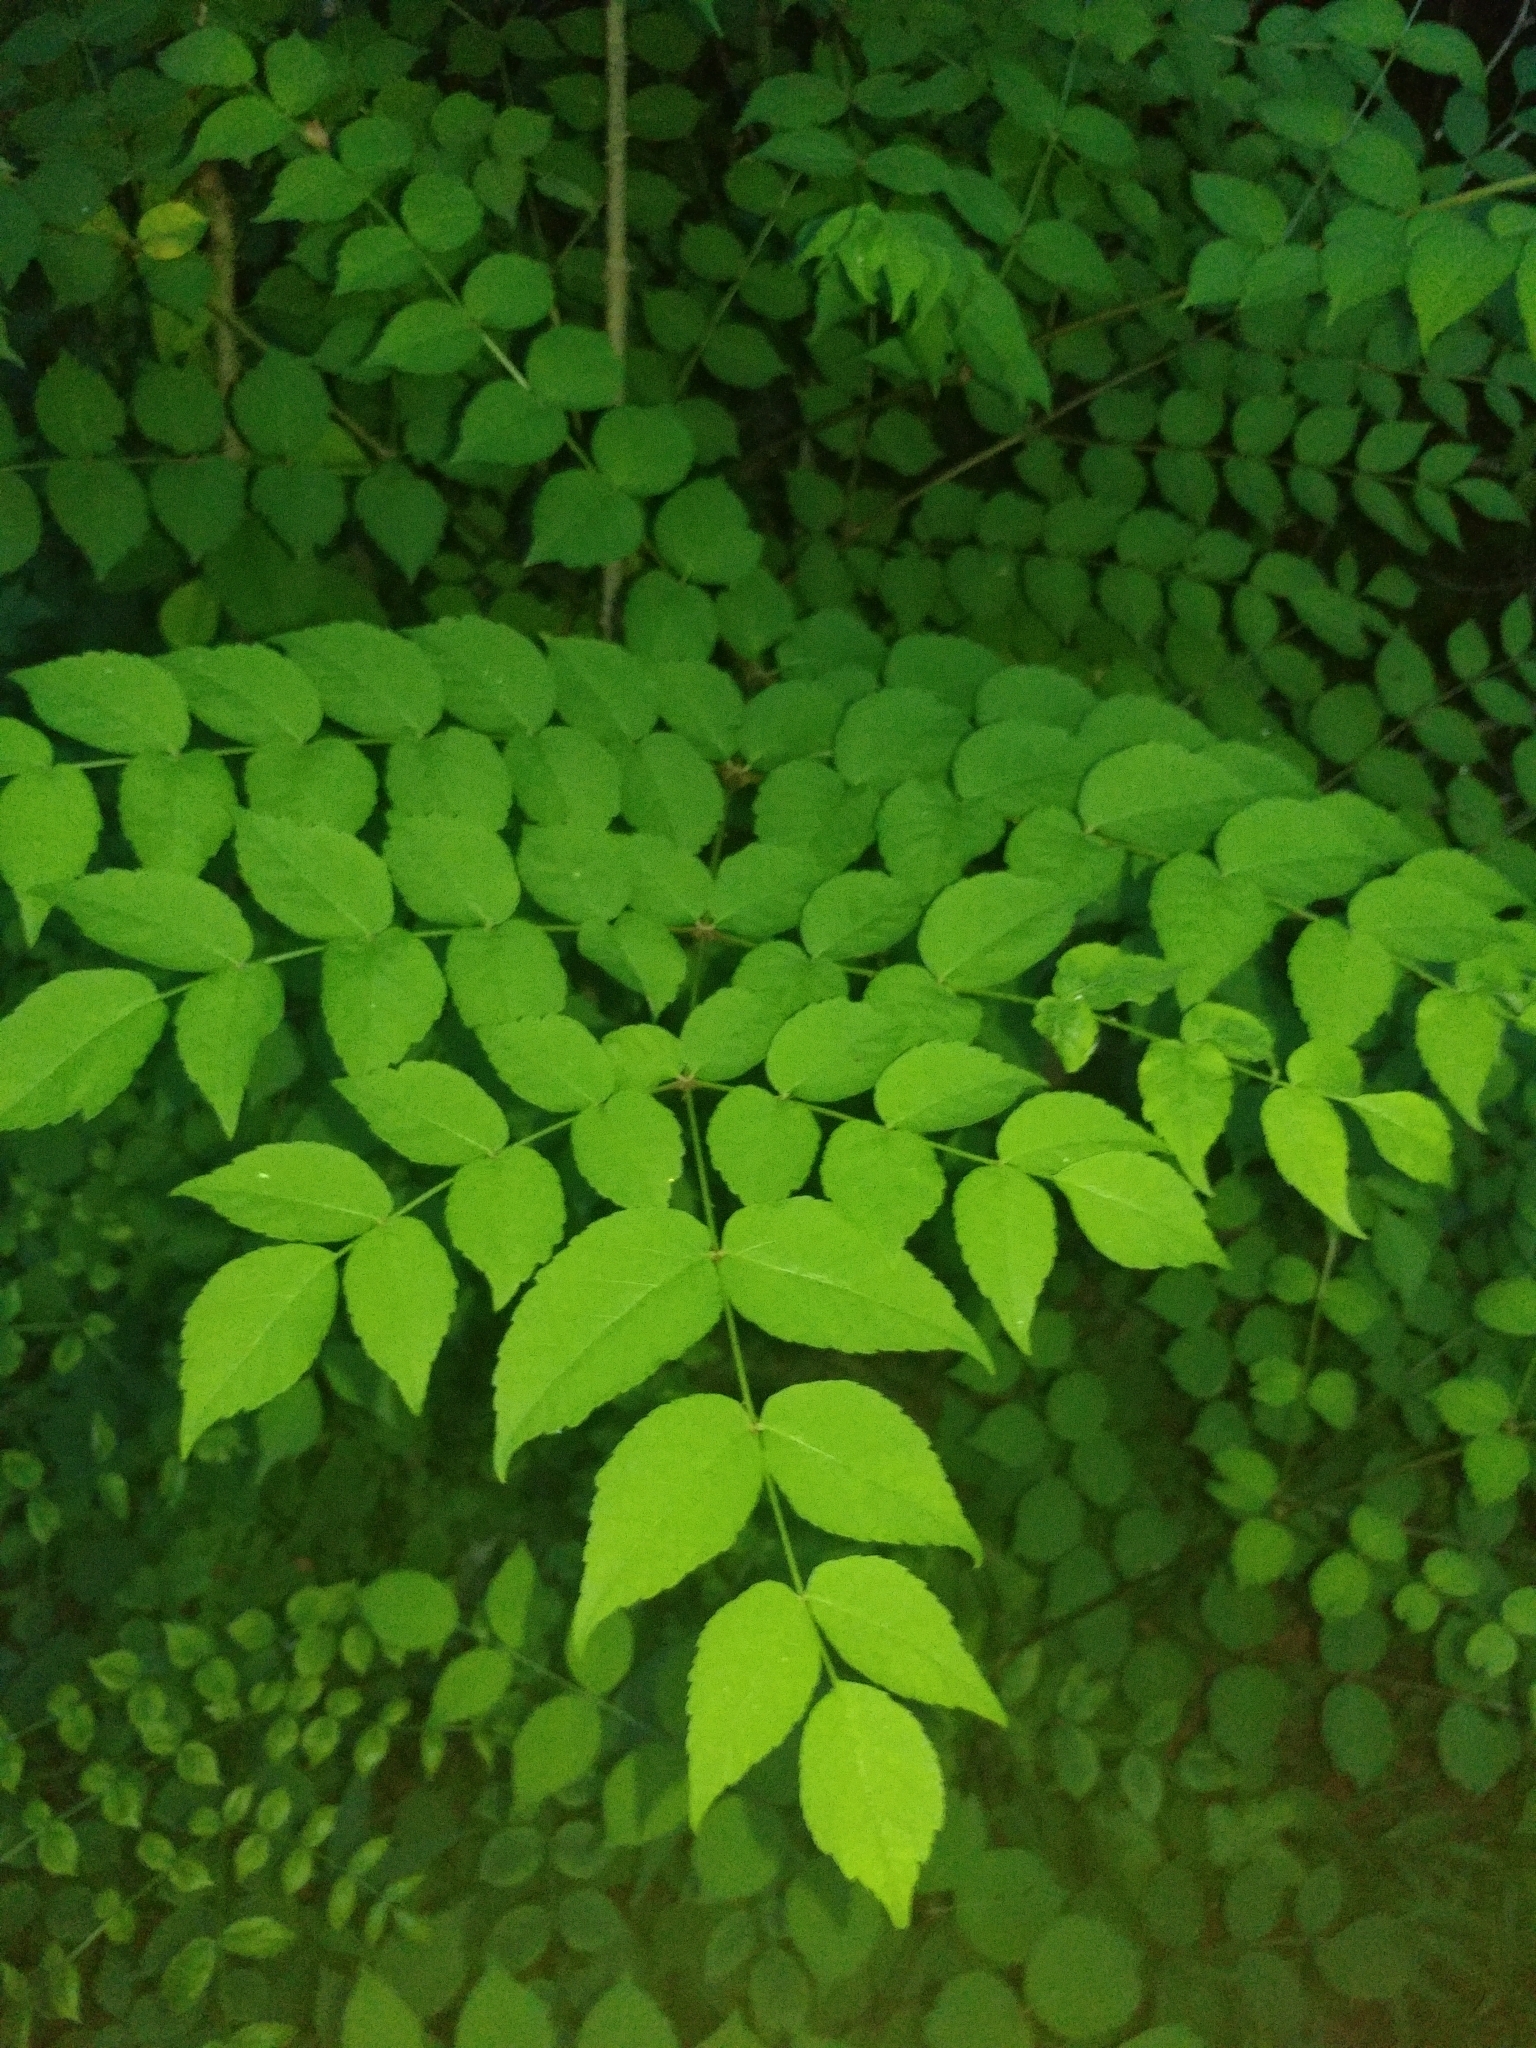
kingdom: Plantae
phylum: Tracheophyta
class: Magnoliopsida
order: Apiales
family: Araliaceae
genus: Aralia
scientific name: Aralia elata
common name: Japanese angelica-tree
